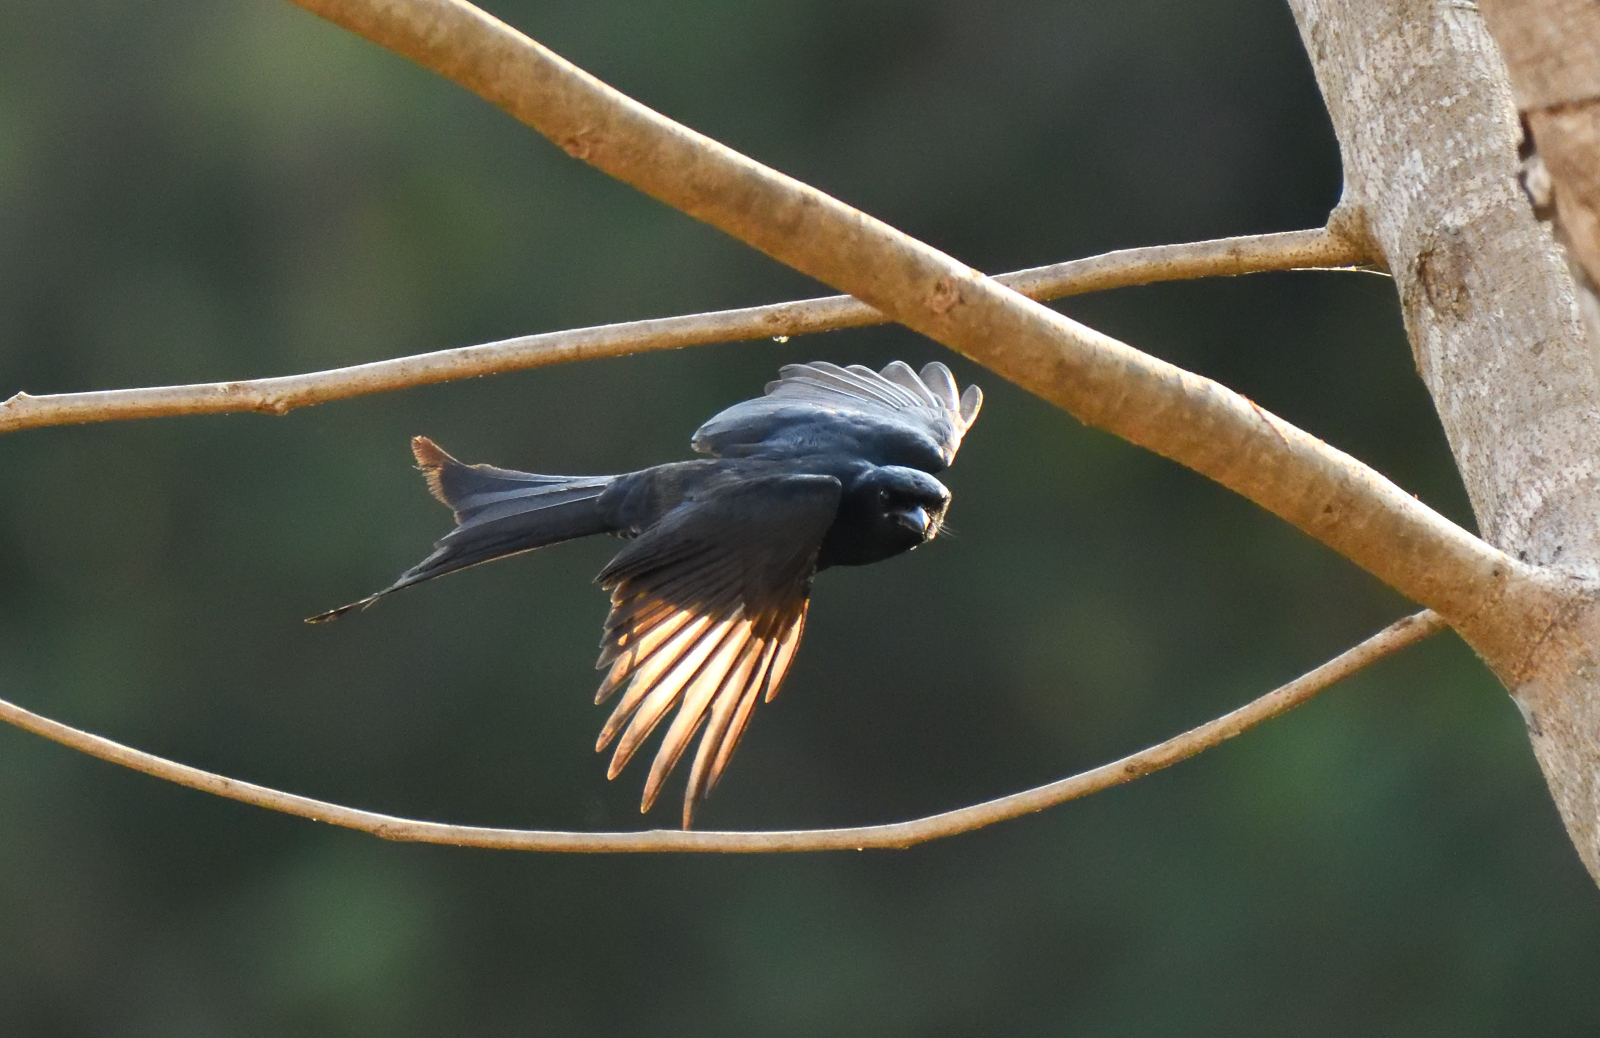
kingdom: Animalia
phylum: Chordata
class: Aves
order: Passeriformes
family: Dicruridae
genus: Dicrurus
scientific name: Dicrurus macrocercus
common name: Black drongo
